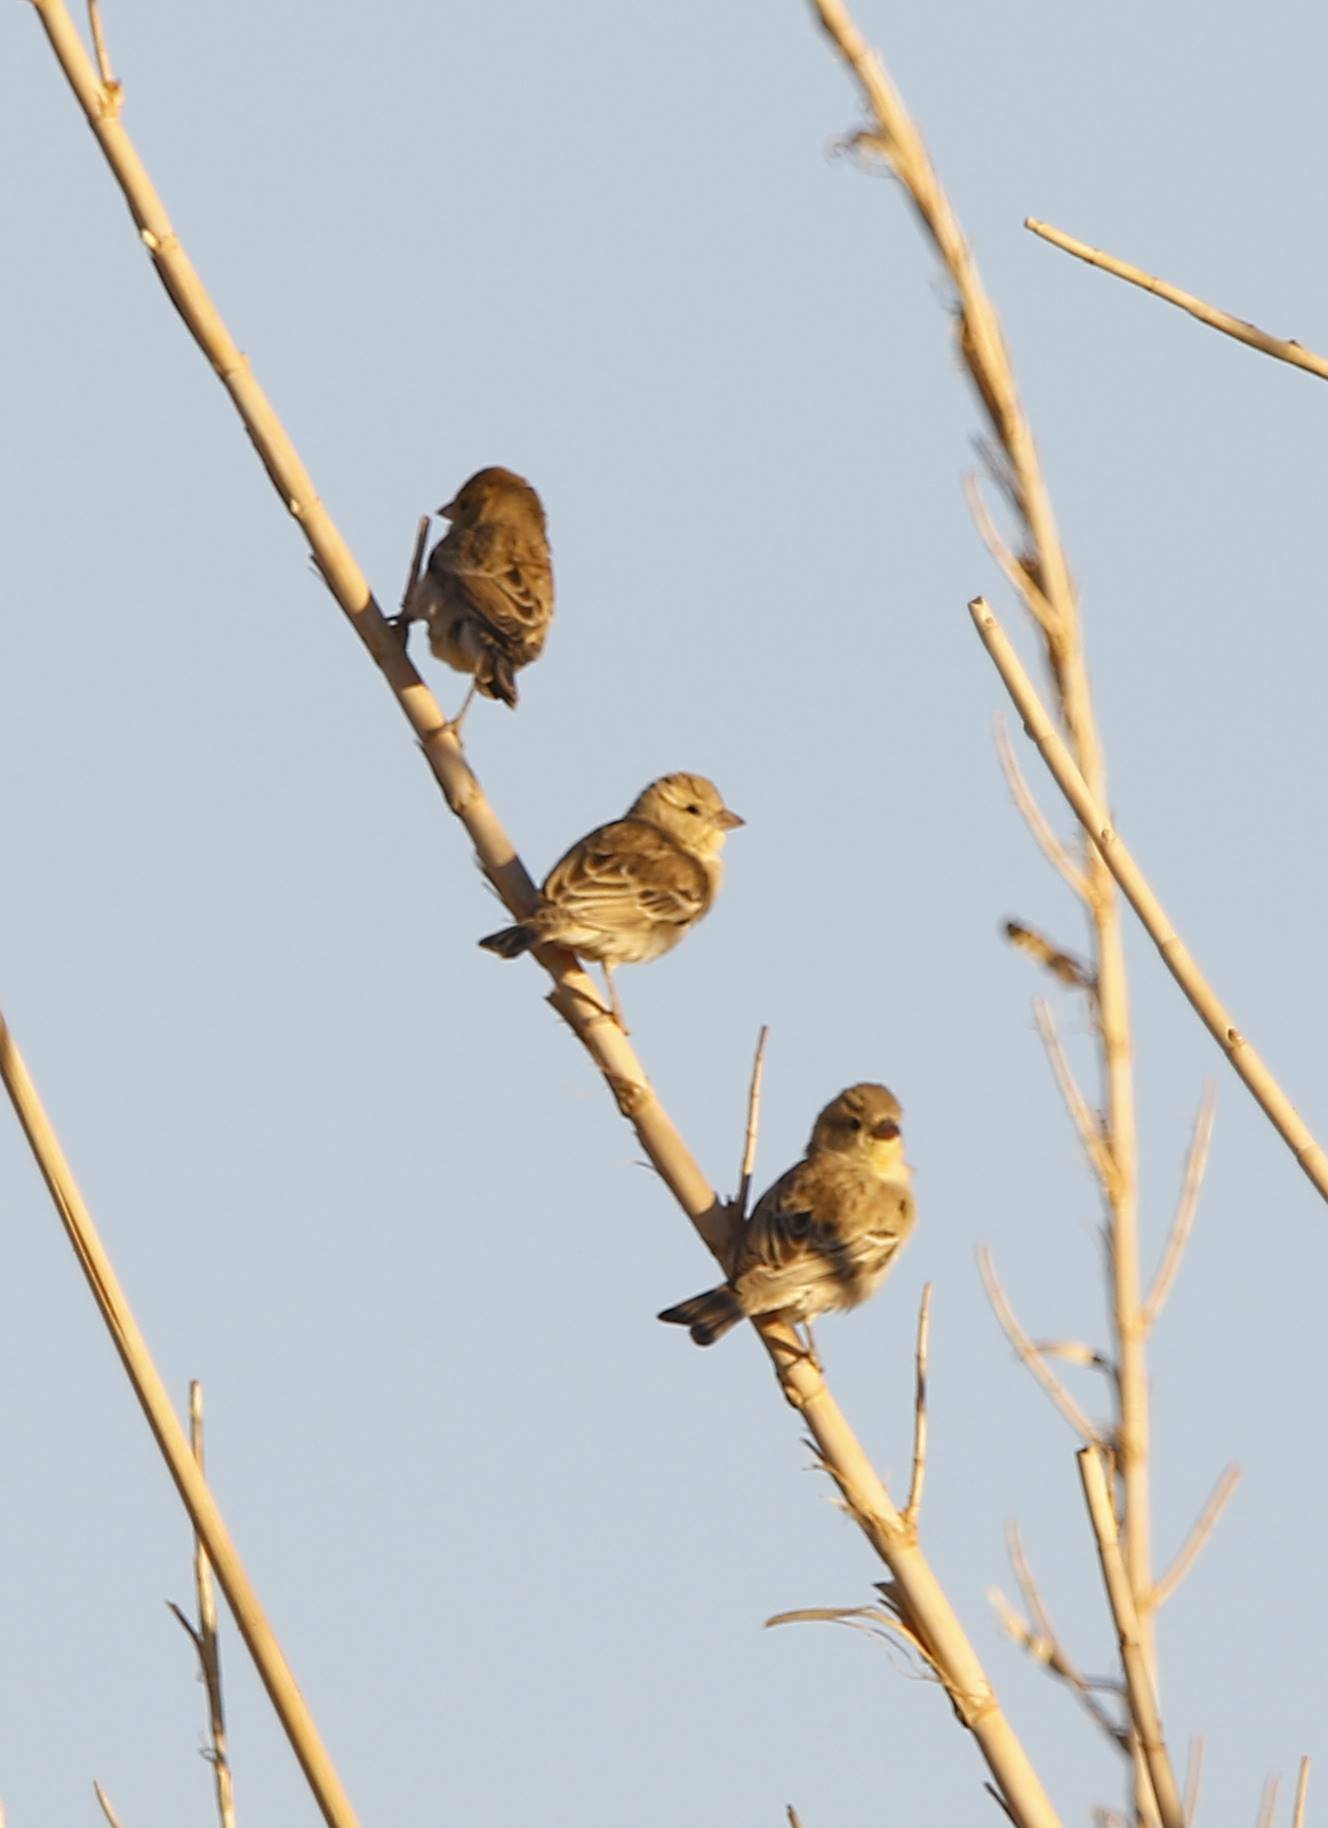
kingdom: Animalia
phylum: Chordata
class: Aves
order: Passeriformes
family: Passeridae
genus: Passer
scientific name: Passer luteus
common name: Sudan golden sparrow
